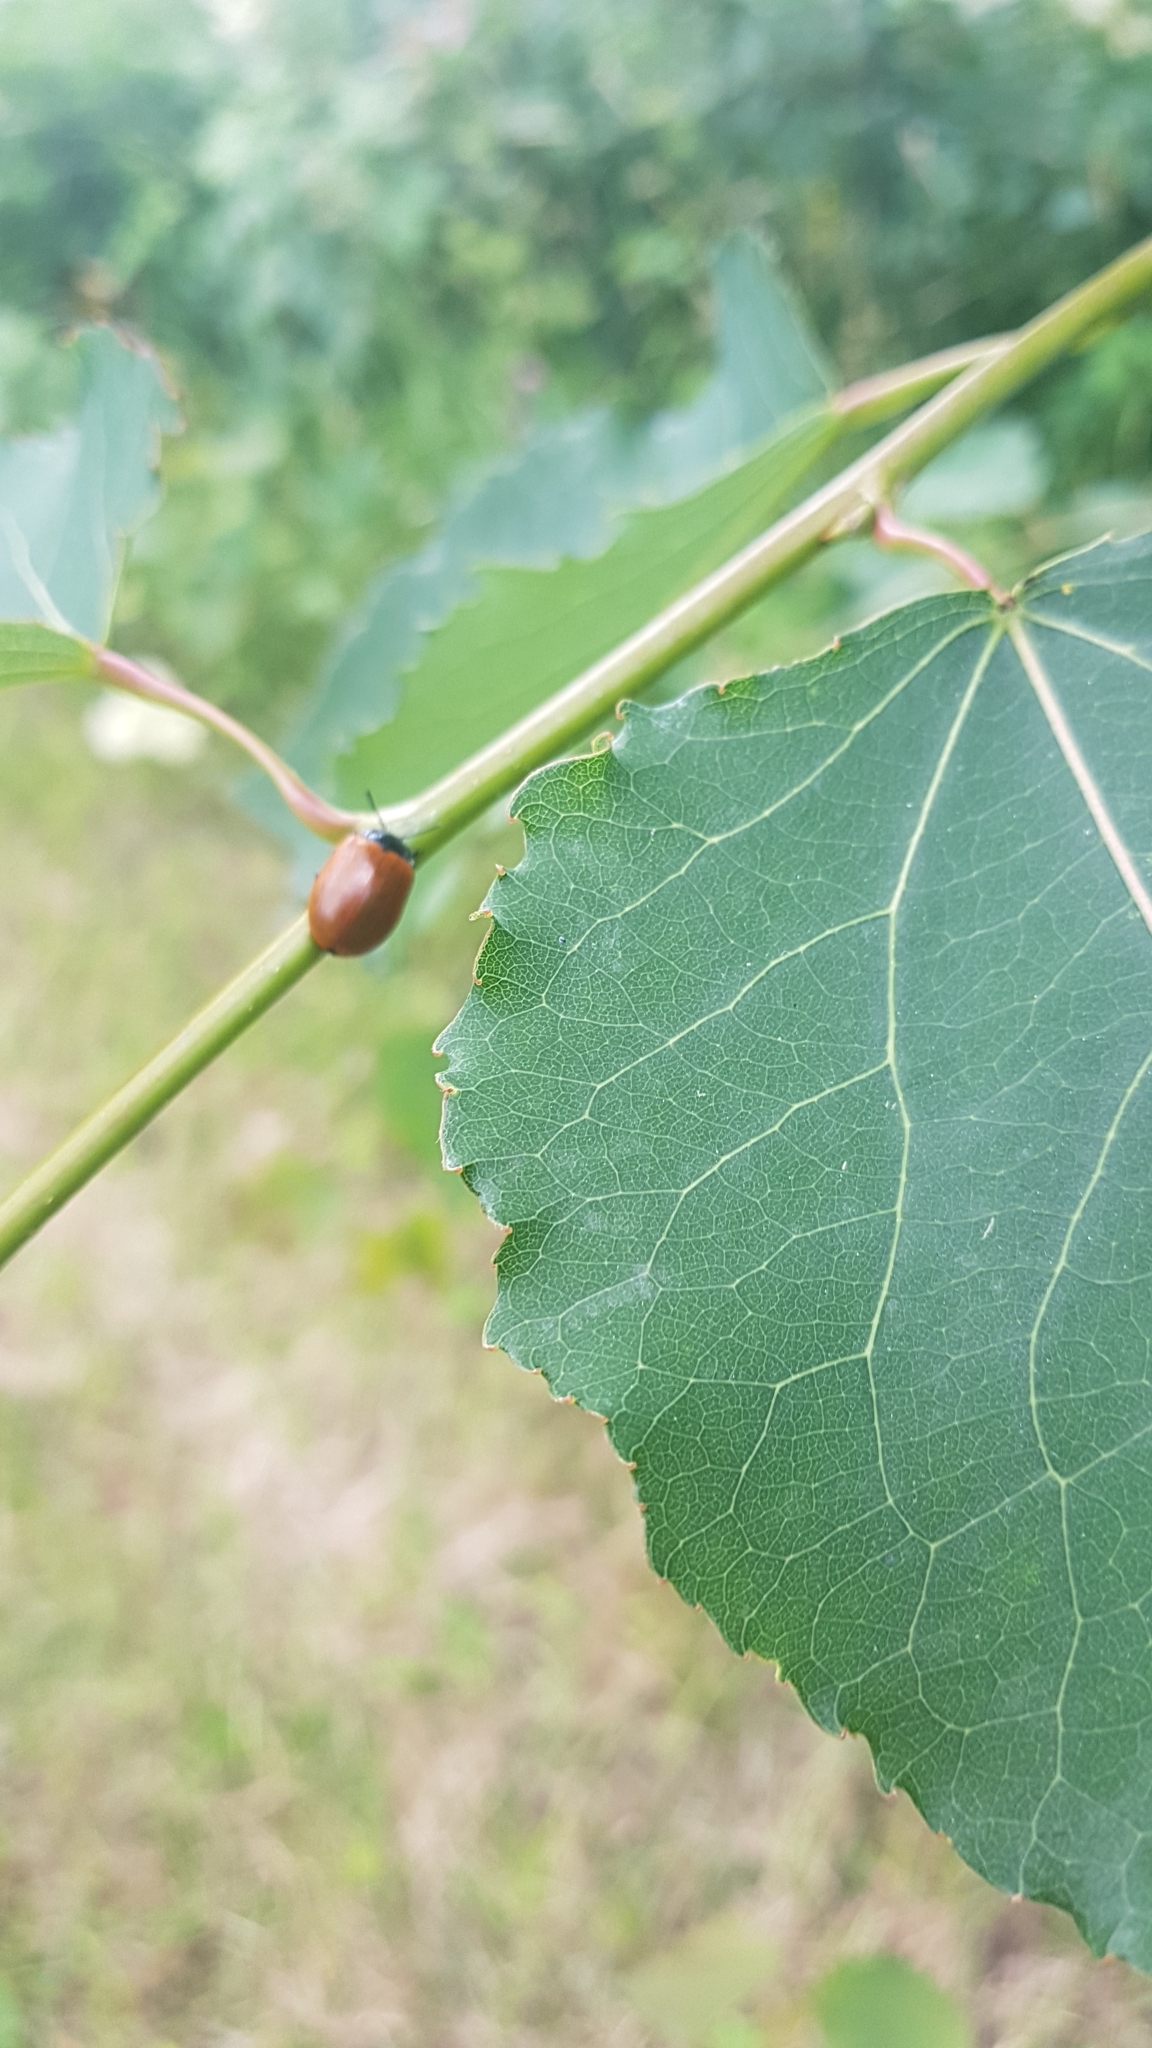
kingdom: Animalia
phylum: Arthropoda
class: Insecta
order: Coleoptera
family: Chrysomelidae
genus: Chrysomela
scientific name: Chrysomela populi
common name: Red poplar leaf beetle
